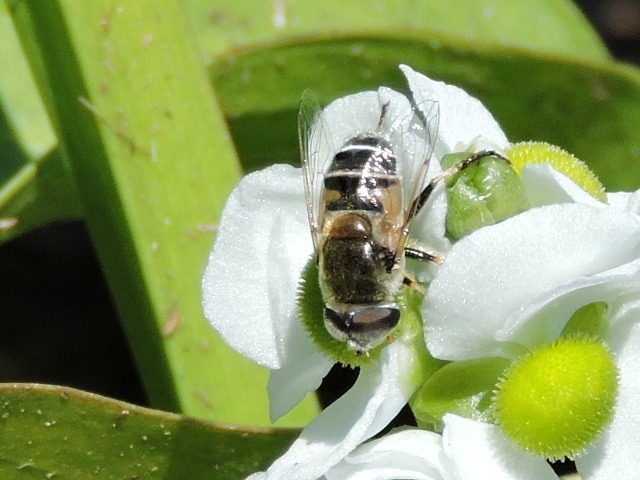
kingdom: Animalia
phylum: Arthropoda
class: Insecta
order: Diptera
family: Syrphidae
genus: Eristalis
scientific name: Eristalis stipator
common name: Yellow-shouldered drone fly
